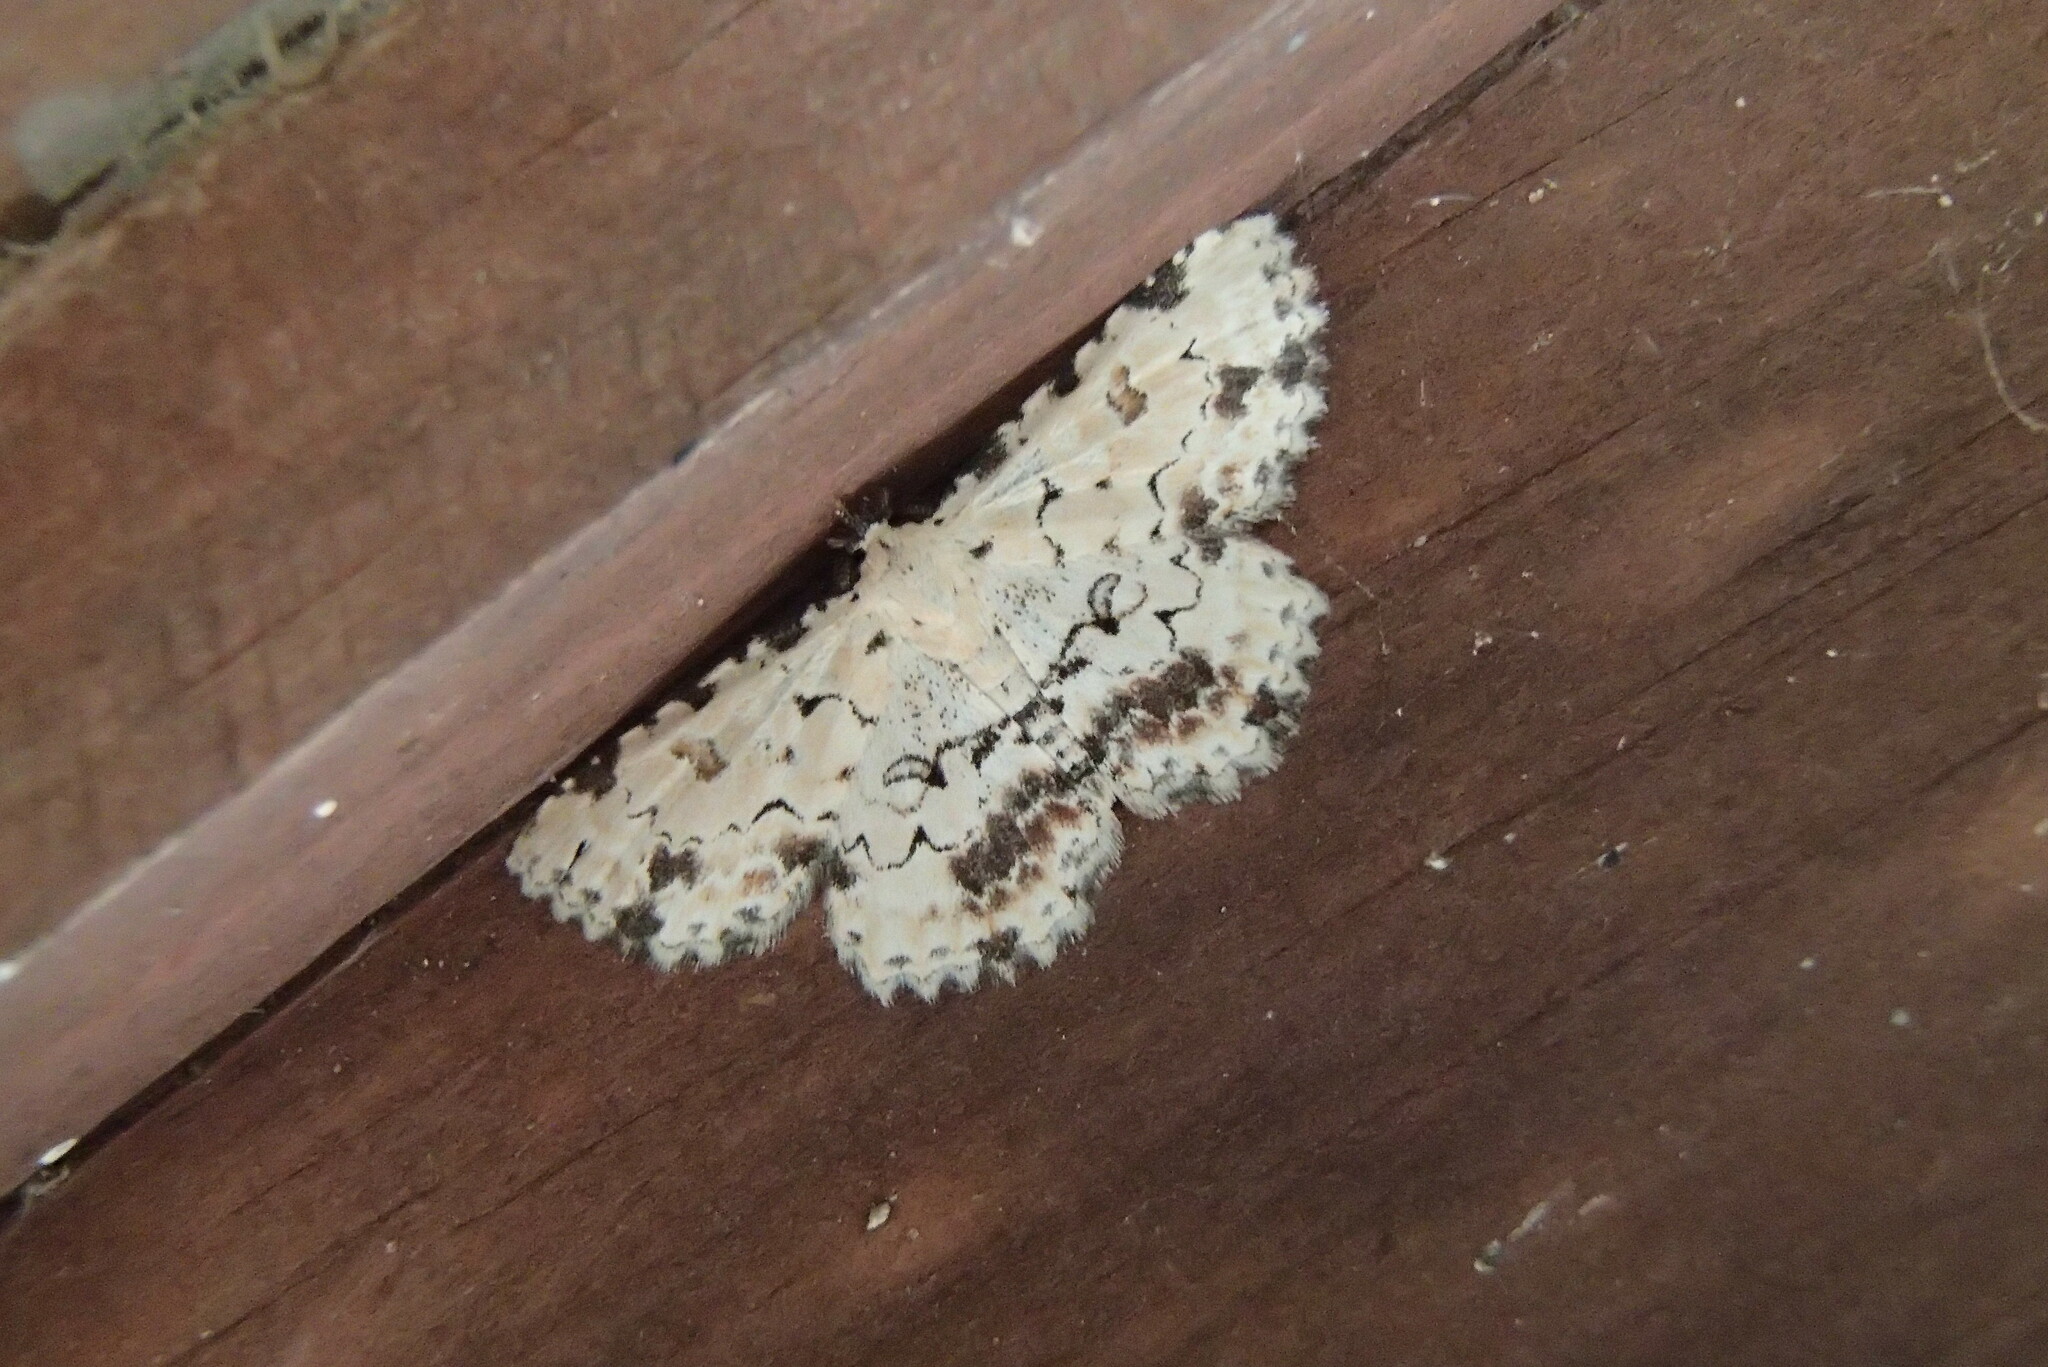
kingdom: Animalia
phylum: Arthropoda
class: Insecta
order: Lepidoptera
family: Erebidae
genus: Sandava
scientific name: Sandava scitisignata
